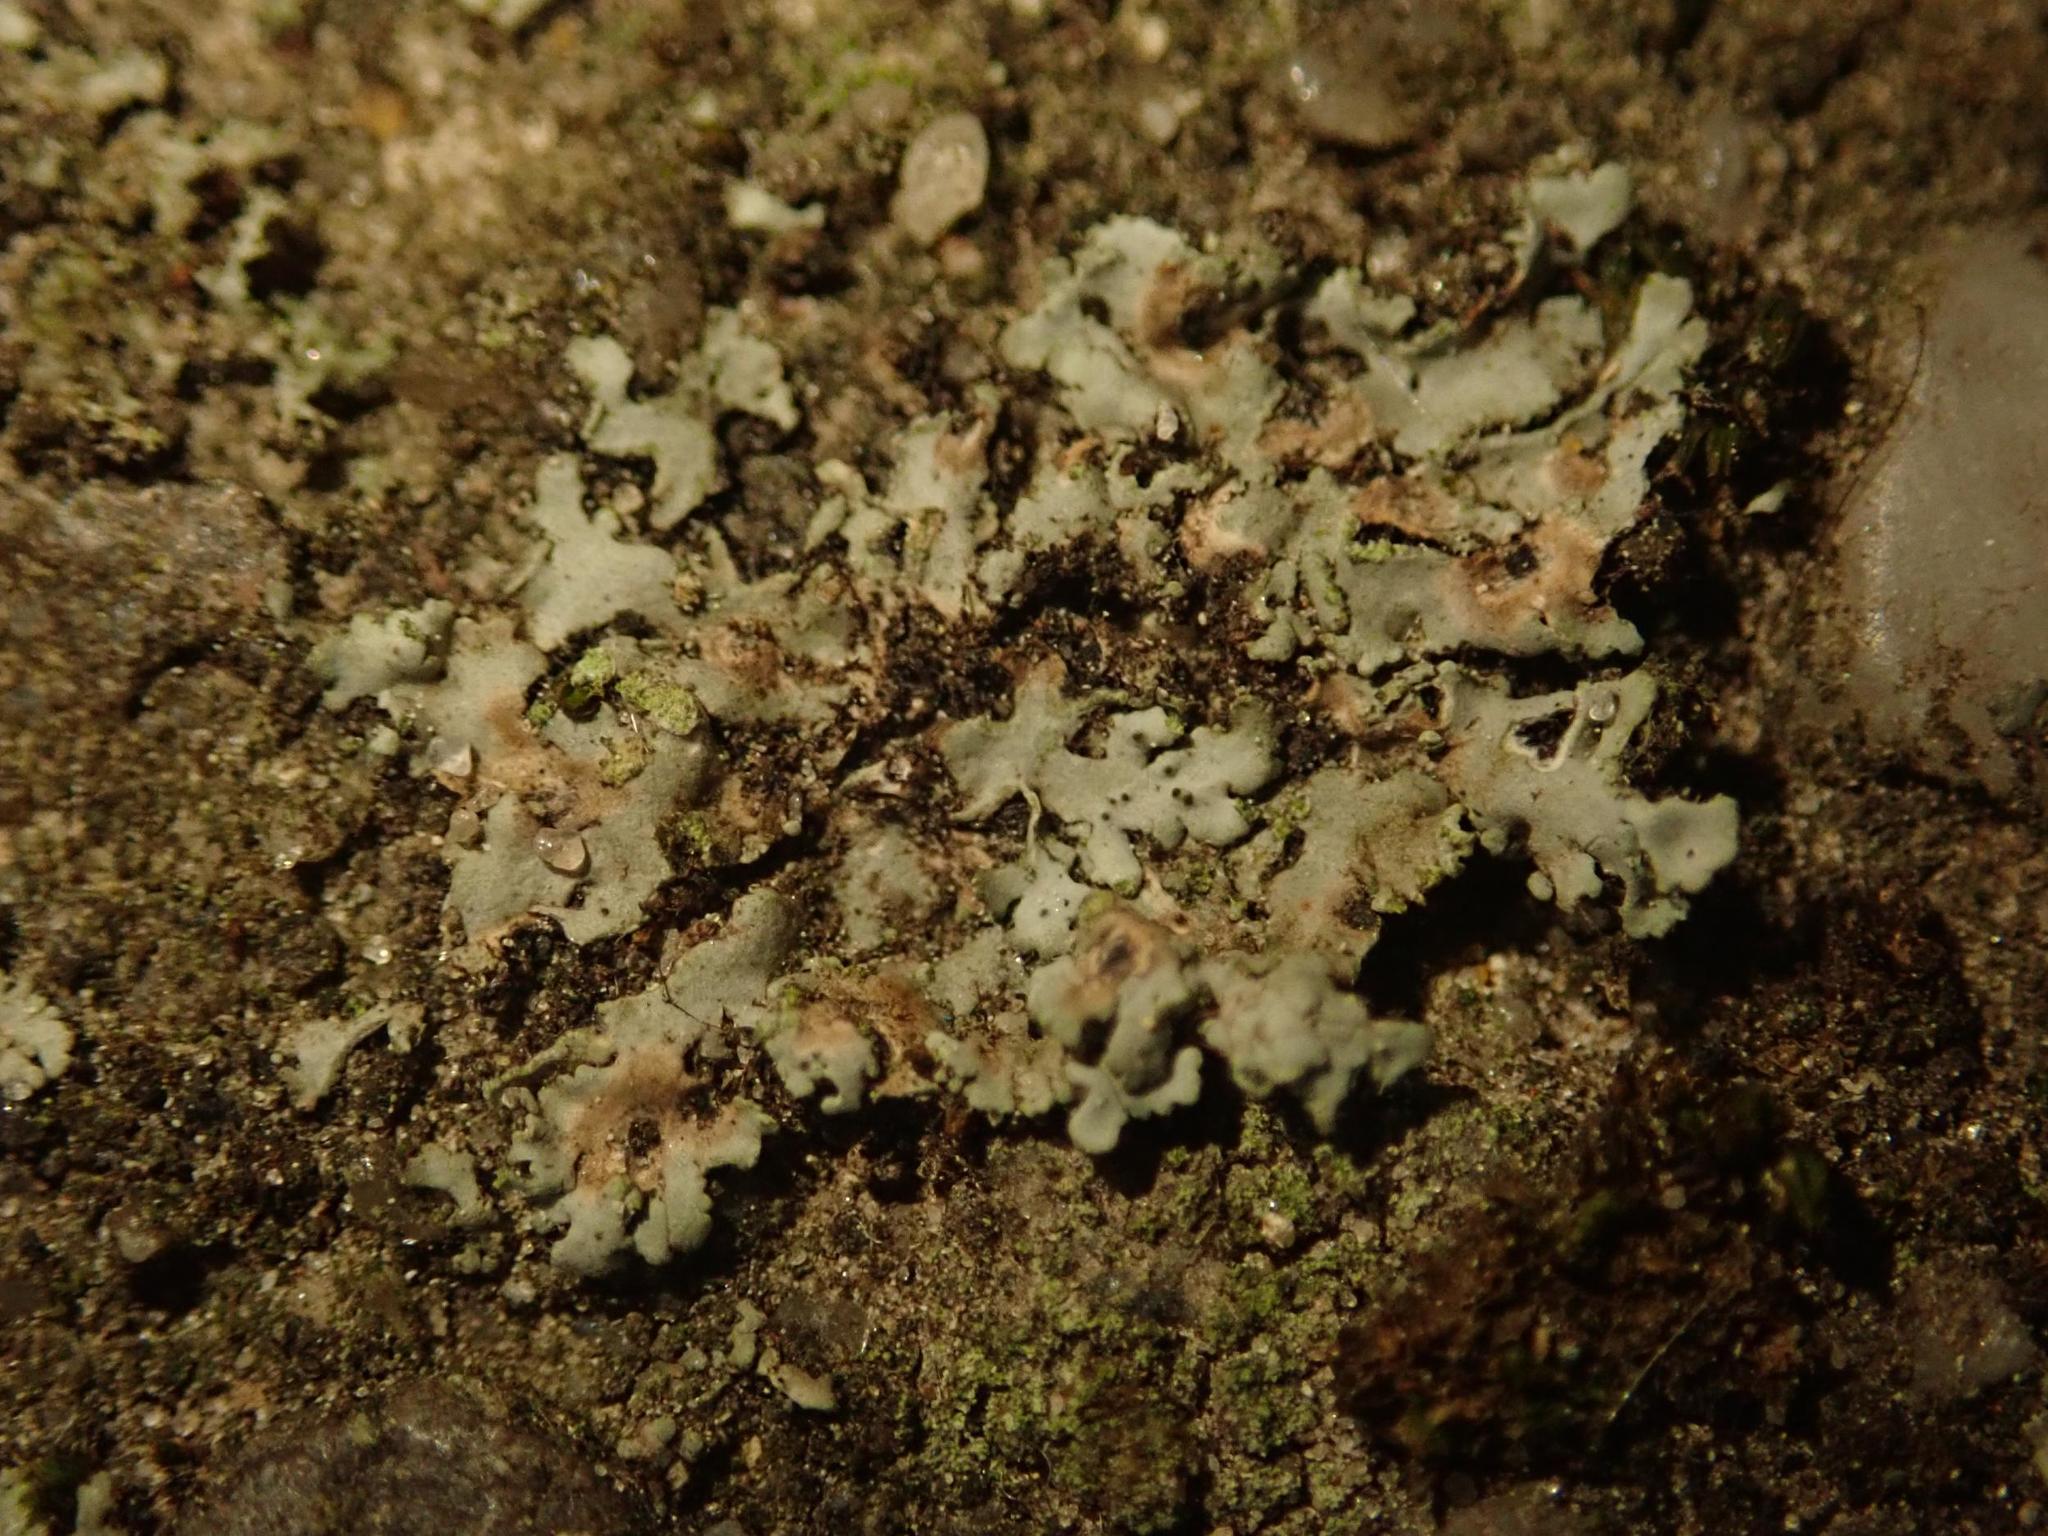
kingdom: Fungi
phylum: Ascomycota
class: Lecanoromycetes
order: Caliciales
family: Physciaceae
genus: Phaeophyscia
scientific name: Phaeophyscia orbicularis
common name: Mealy shadow lichen
